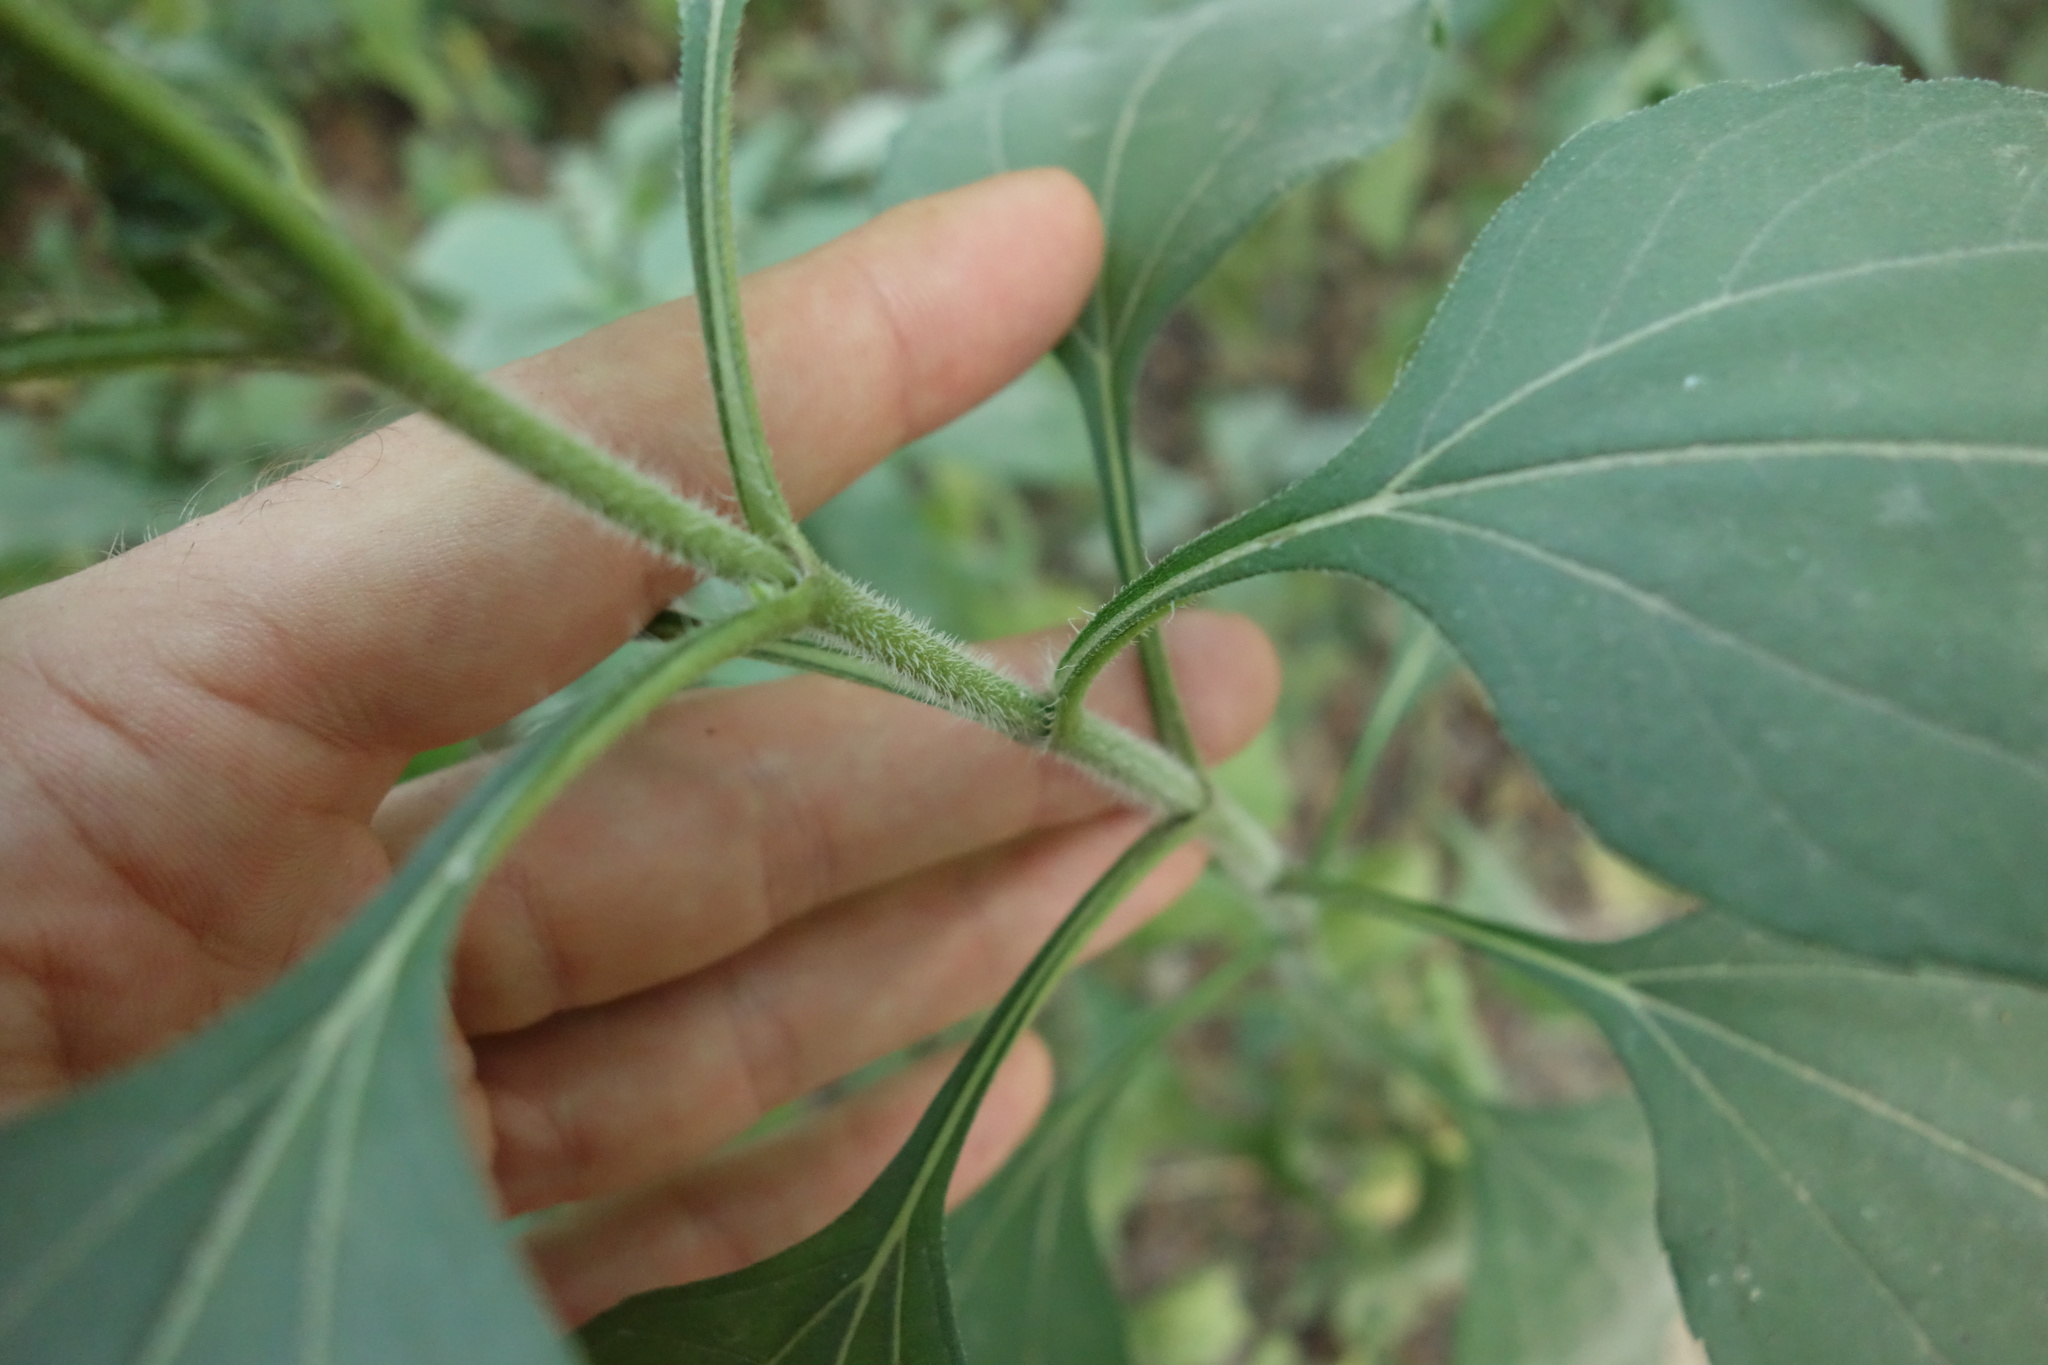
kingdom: Plantae
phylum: Tracheophyta
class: Magnoliopsida
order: Asterales
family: Asteraceae
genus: Helianthus
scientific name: Helianthus tuberosus
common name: Jerusalem artichoke
